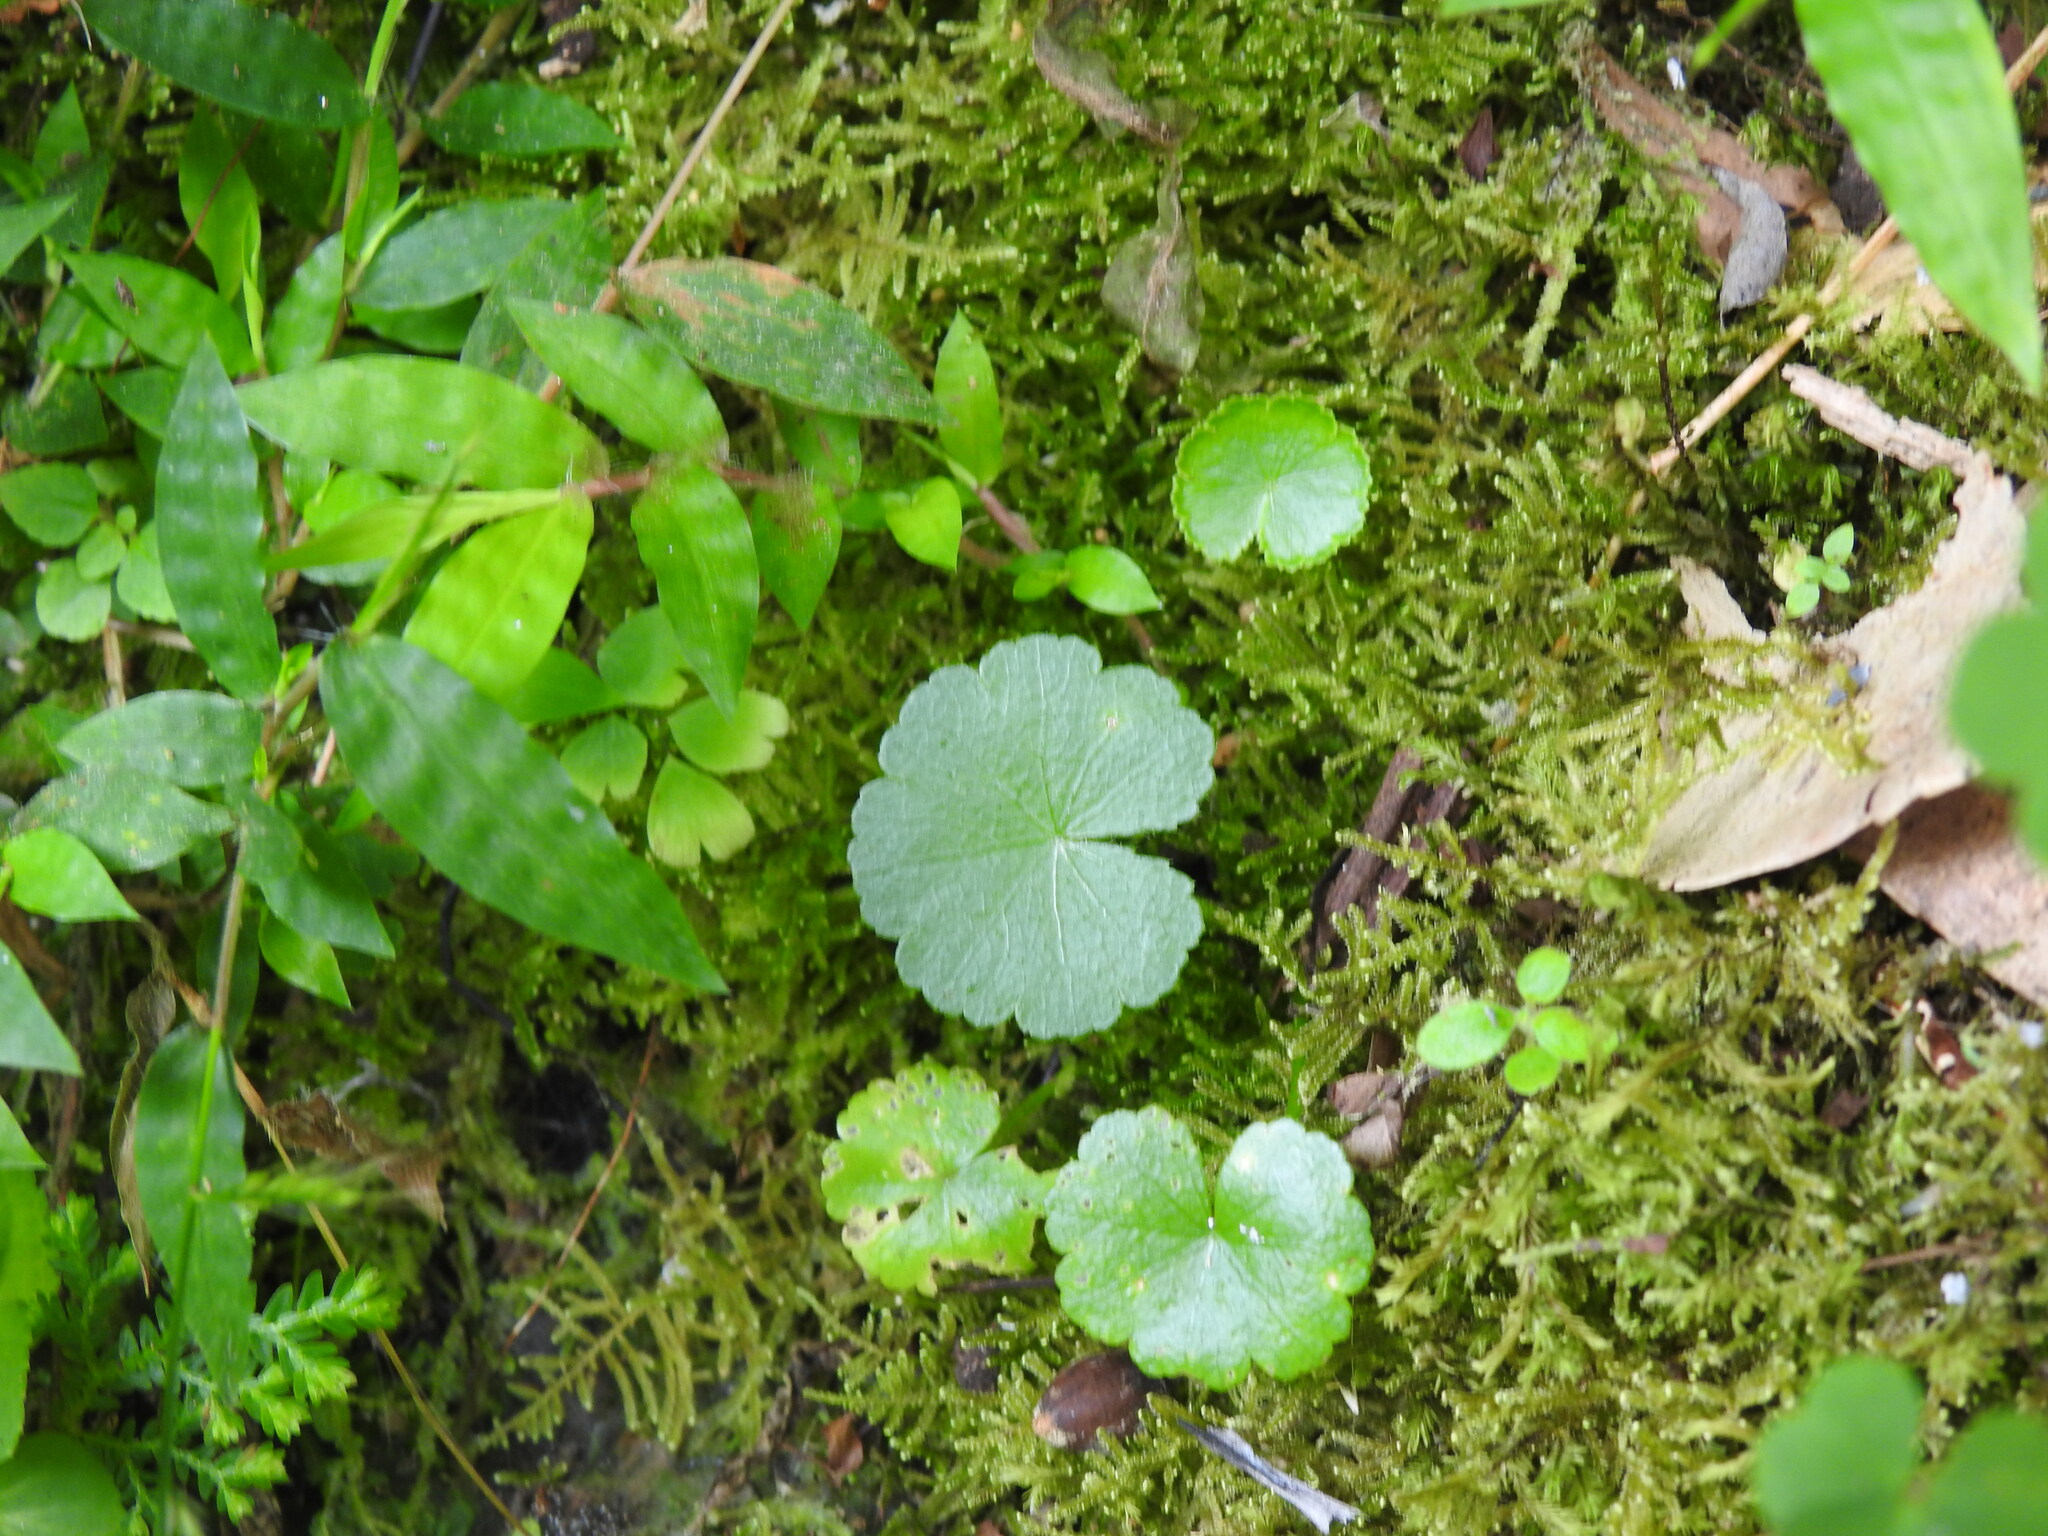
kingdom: Plantae
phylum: Tracheophyta
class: Magnoliopsida
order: Apiales
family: Araliaceae
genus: Hydrocotyle
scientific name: Hydrocotyle mannii
